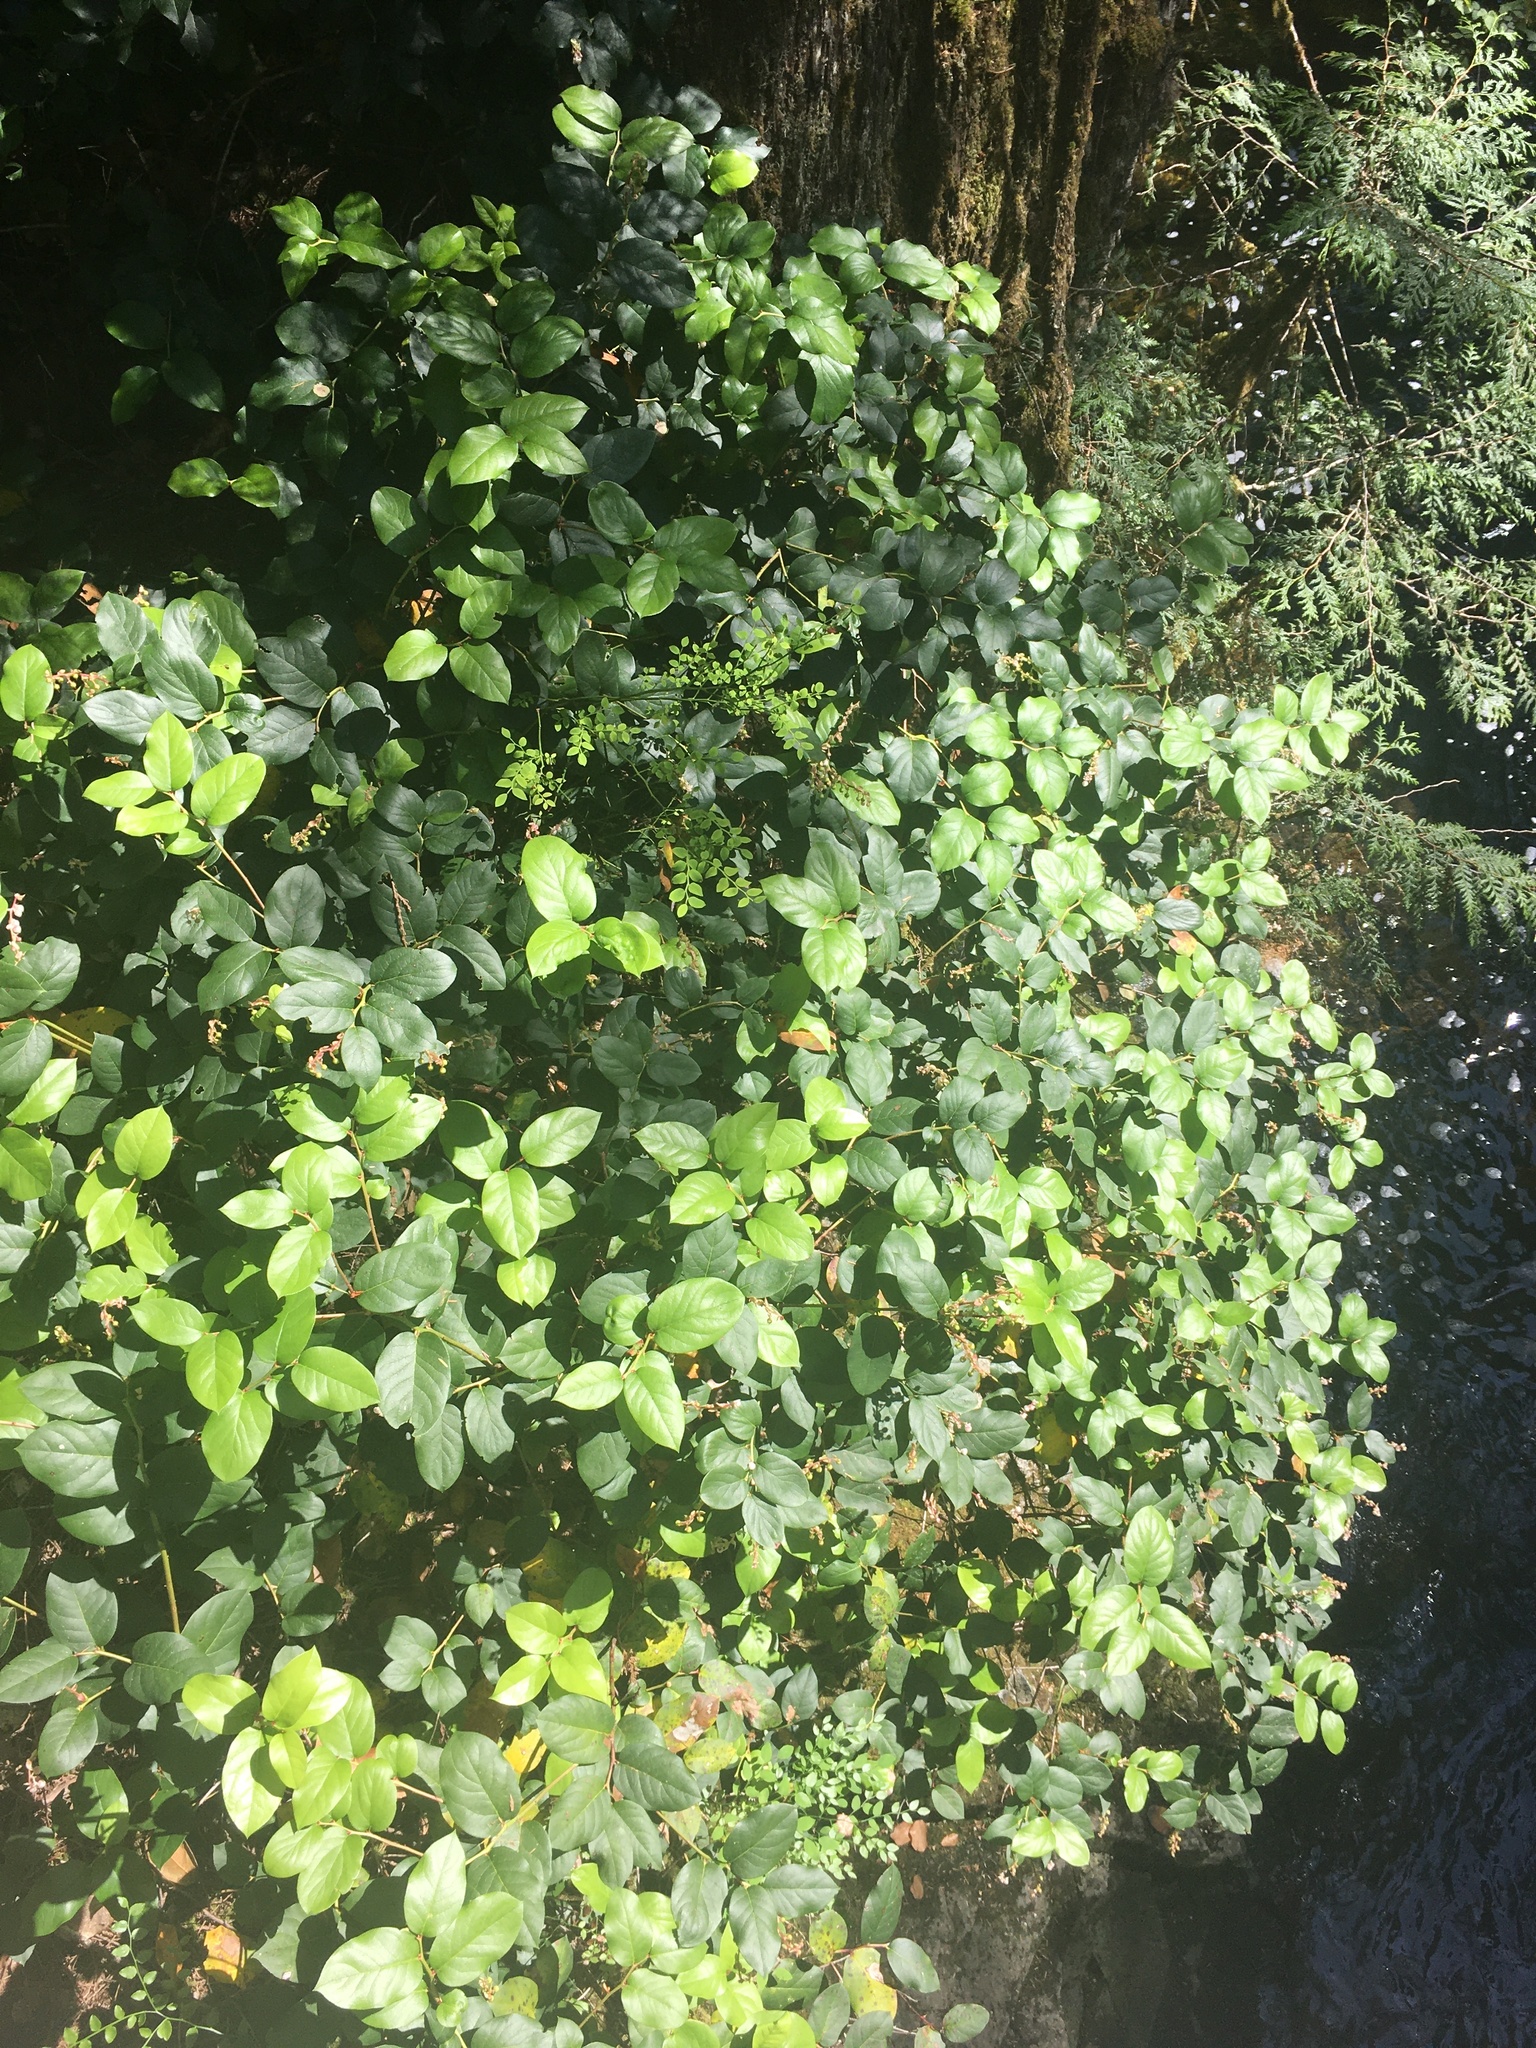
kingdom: Plantae
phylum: Tracheophyta
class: Magnoliopsida
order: Ericales
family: Ericaceae
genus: Gaultheria
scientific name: Gaultheria shallon
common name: Shallon
